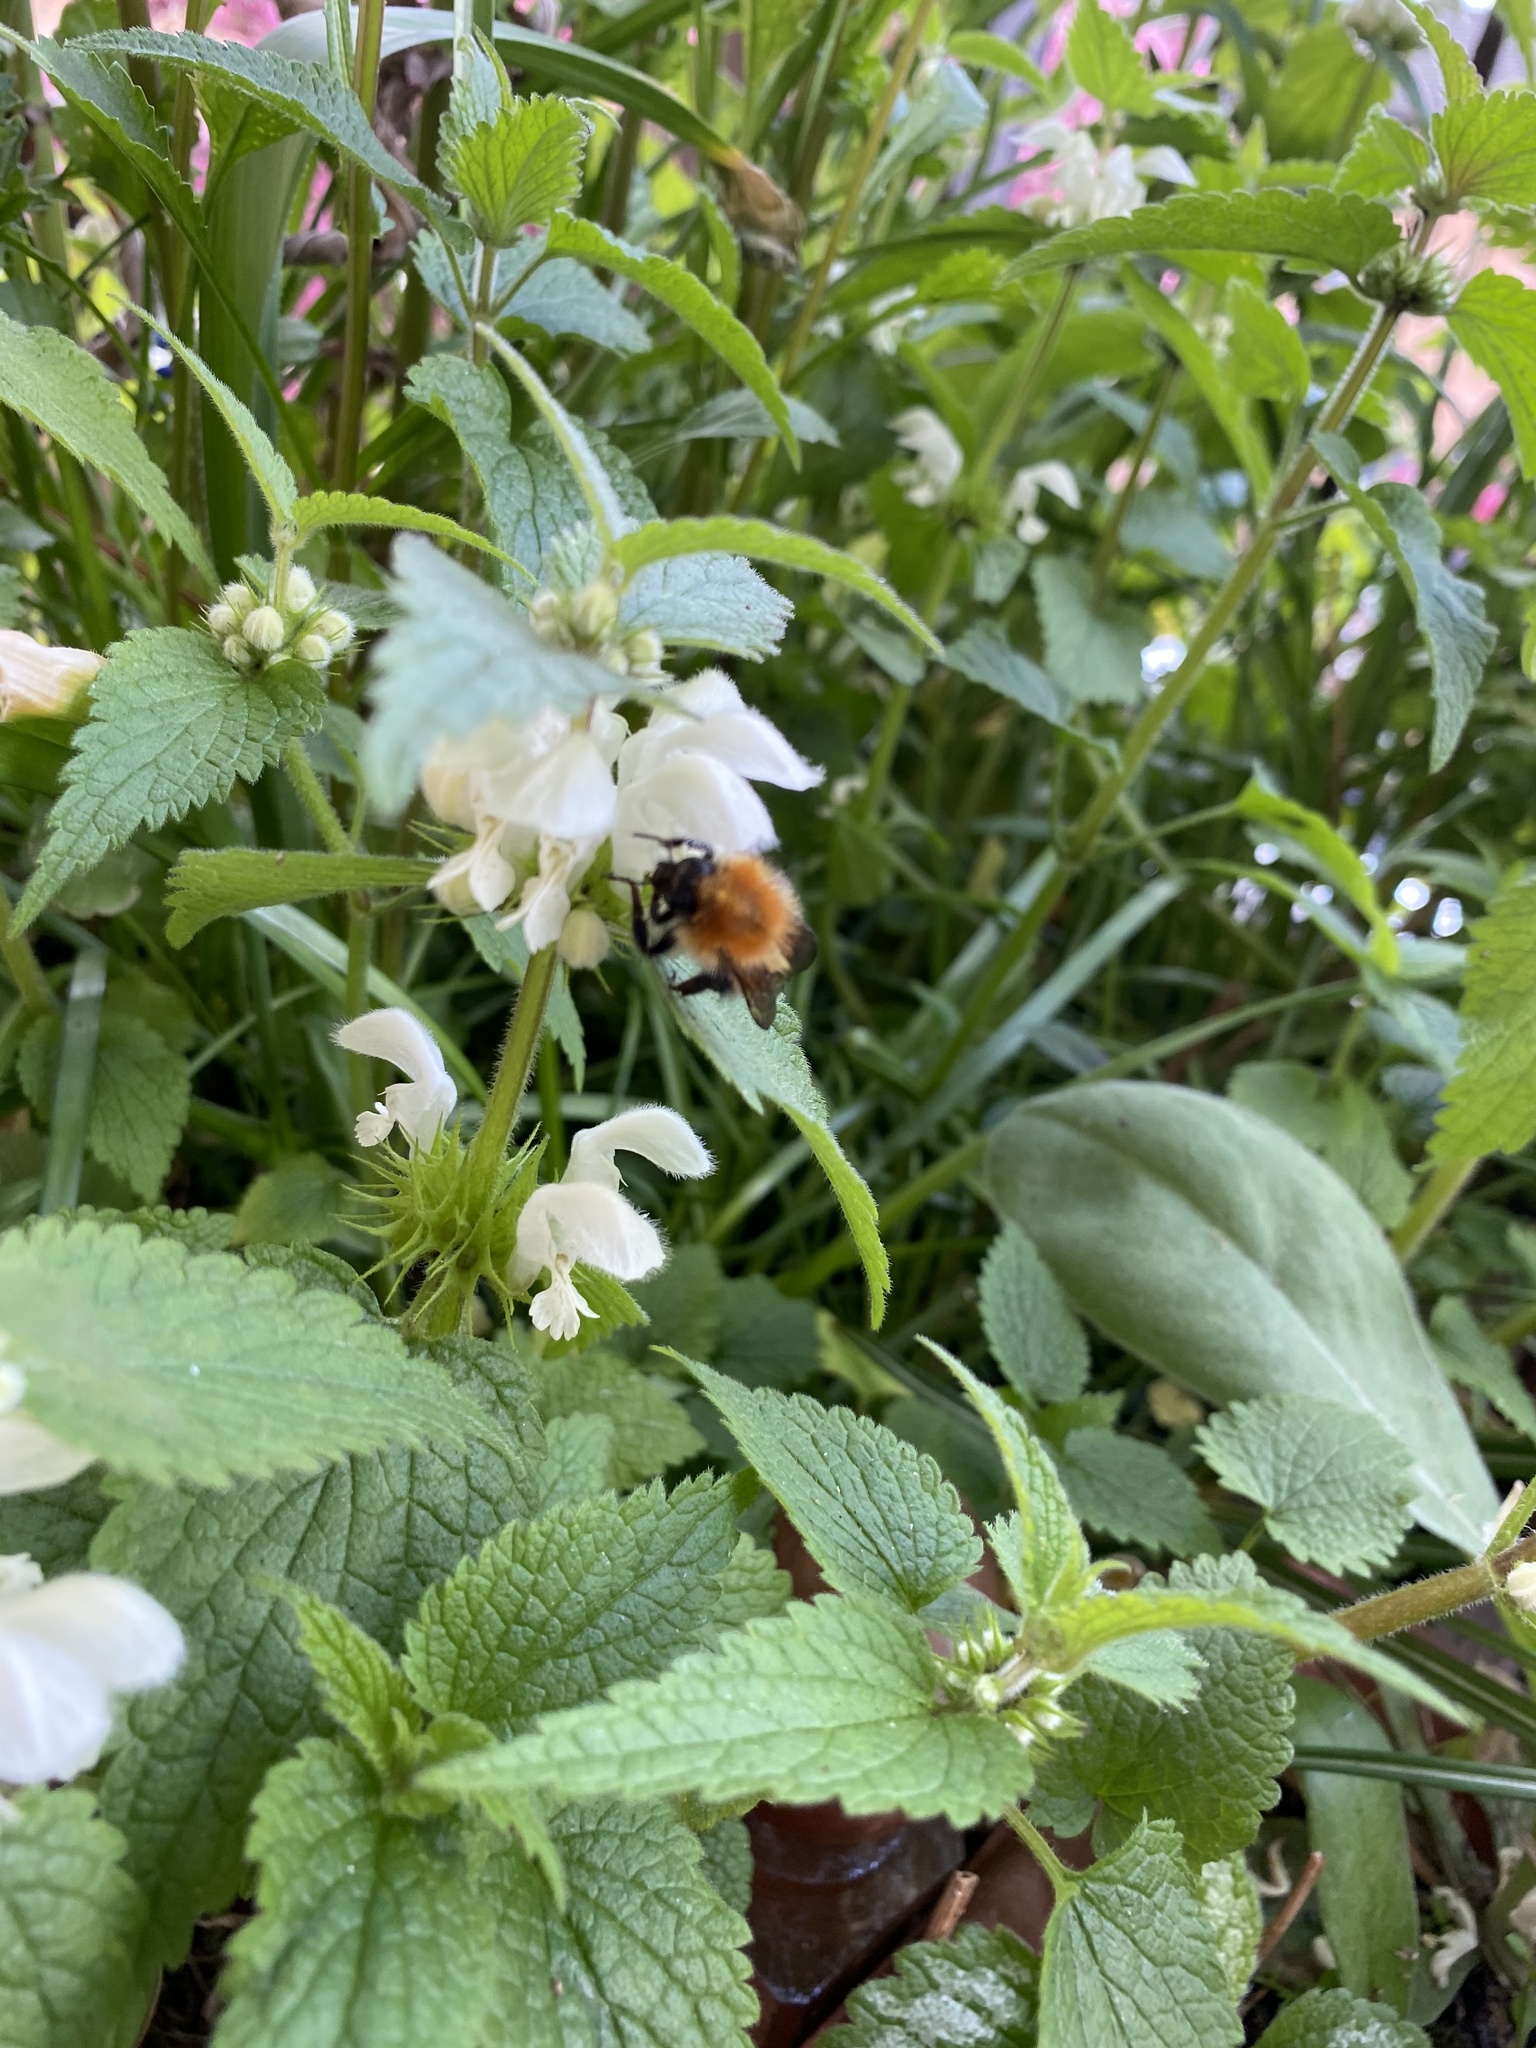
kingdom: Animalia
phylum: Arthropoda
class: Insecta
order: Hymenoptera
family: Apidae
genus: Bombus
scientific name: Bombus pascuorum
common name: Common carder bee
